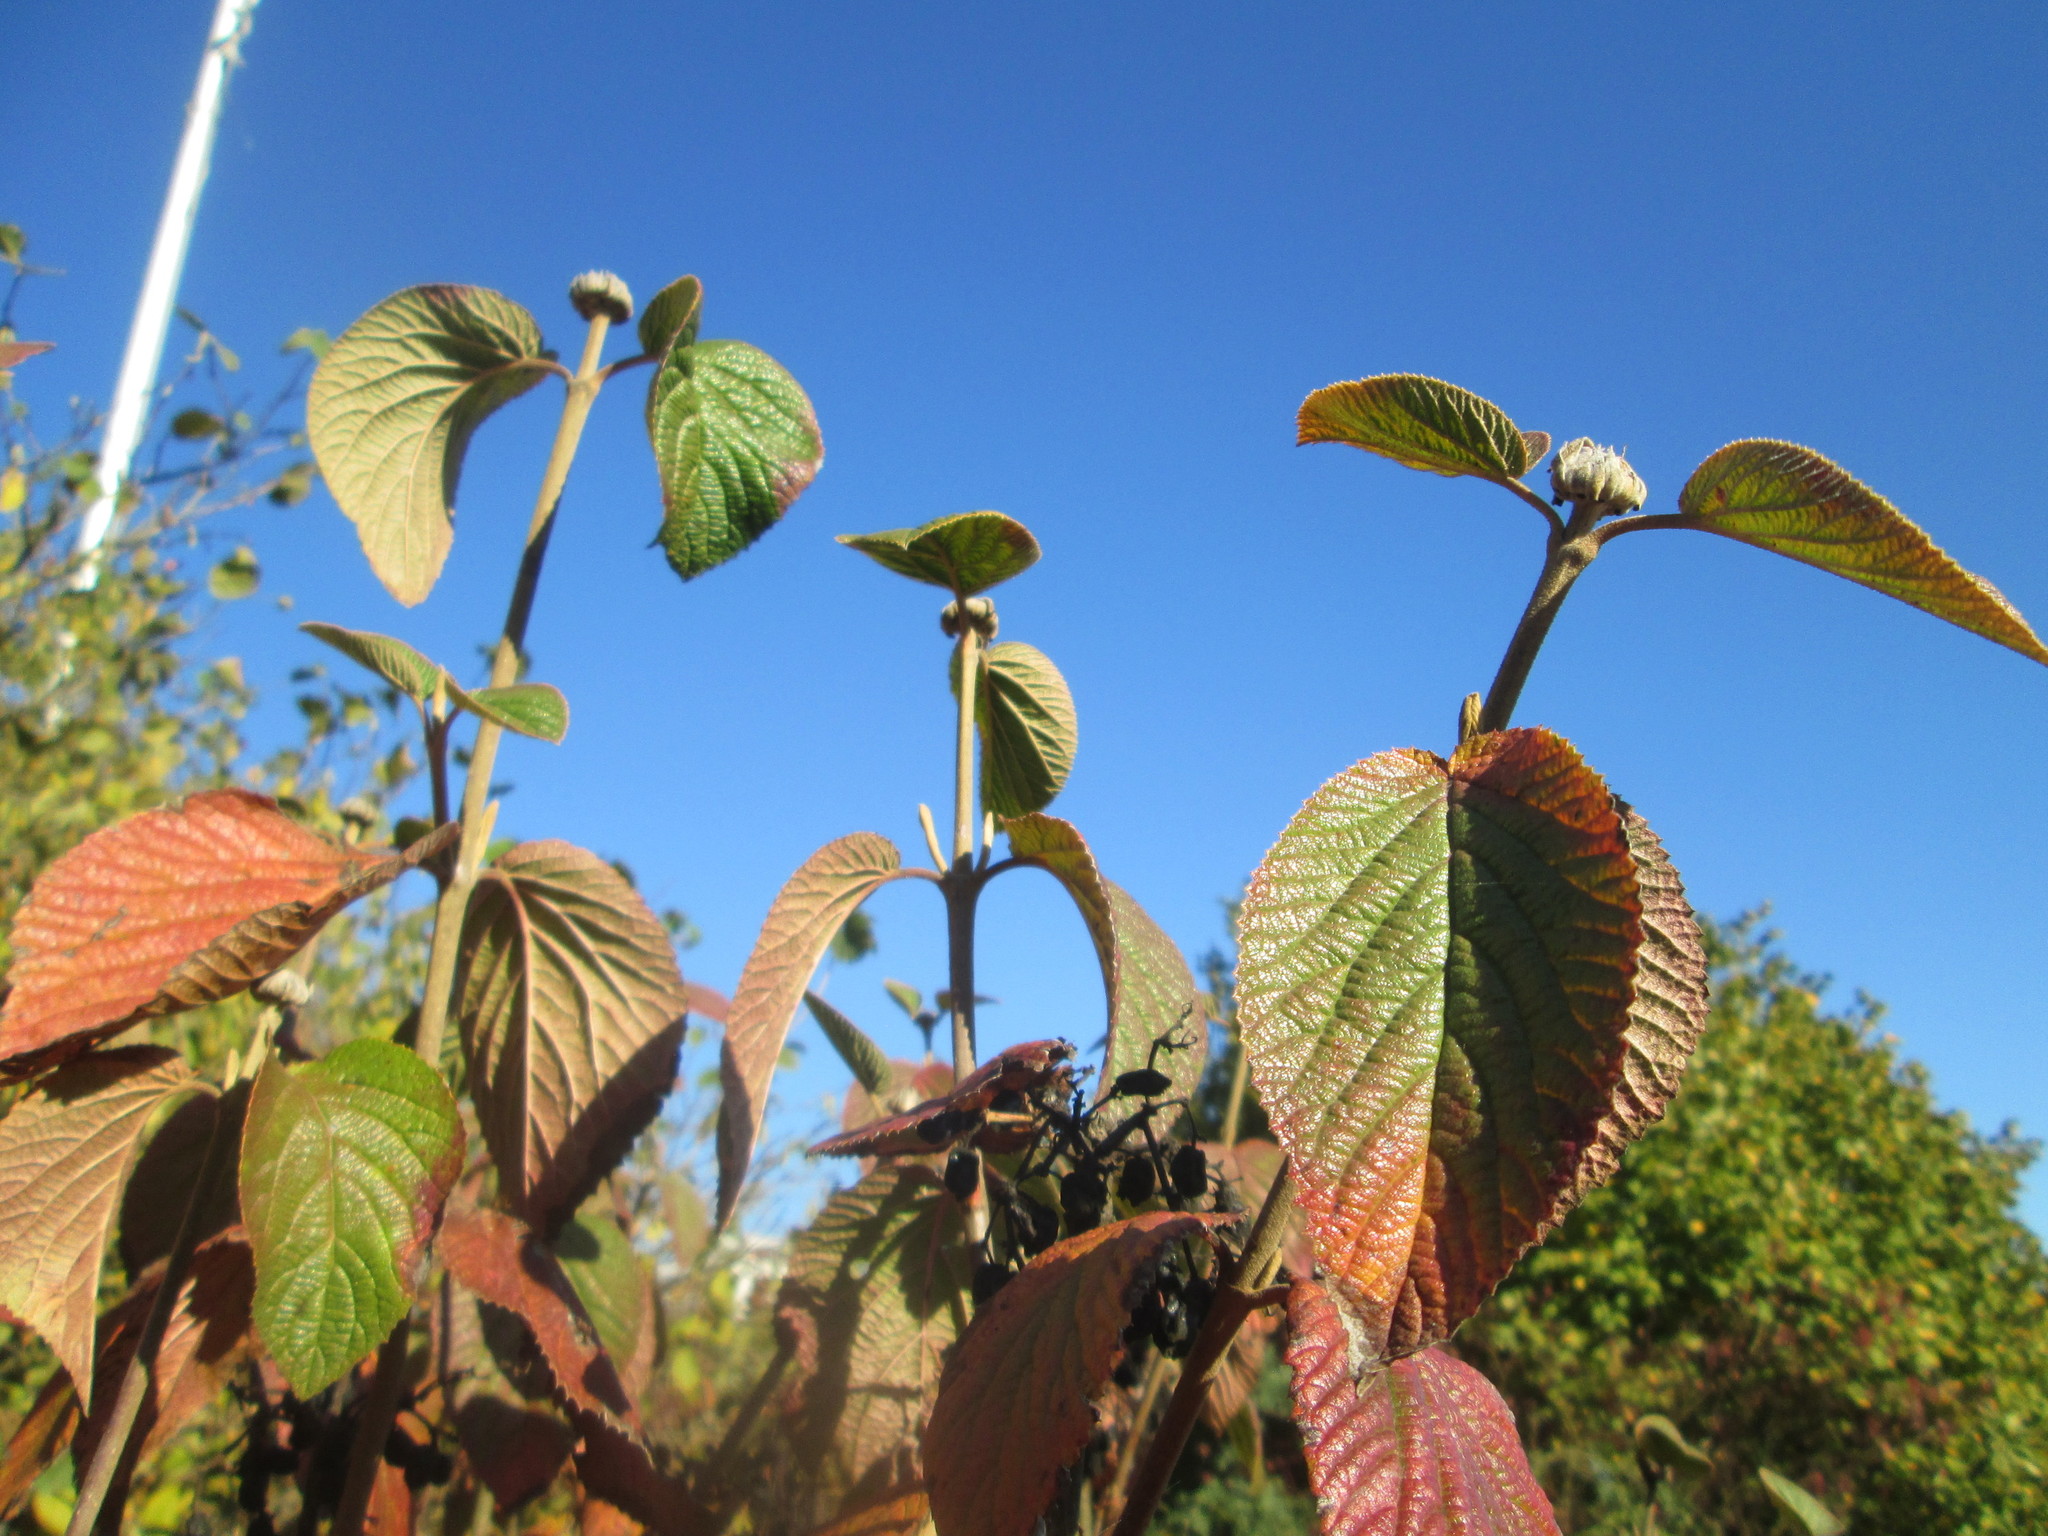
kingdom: Plantae
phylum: Tracheophyta
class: Magnoliopsida
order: Dipsacales
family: Viburnaceae
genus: Viburnum
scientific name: Viburnum lantana
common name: Wayfaring tree
